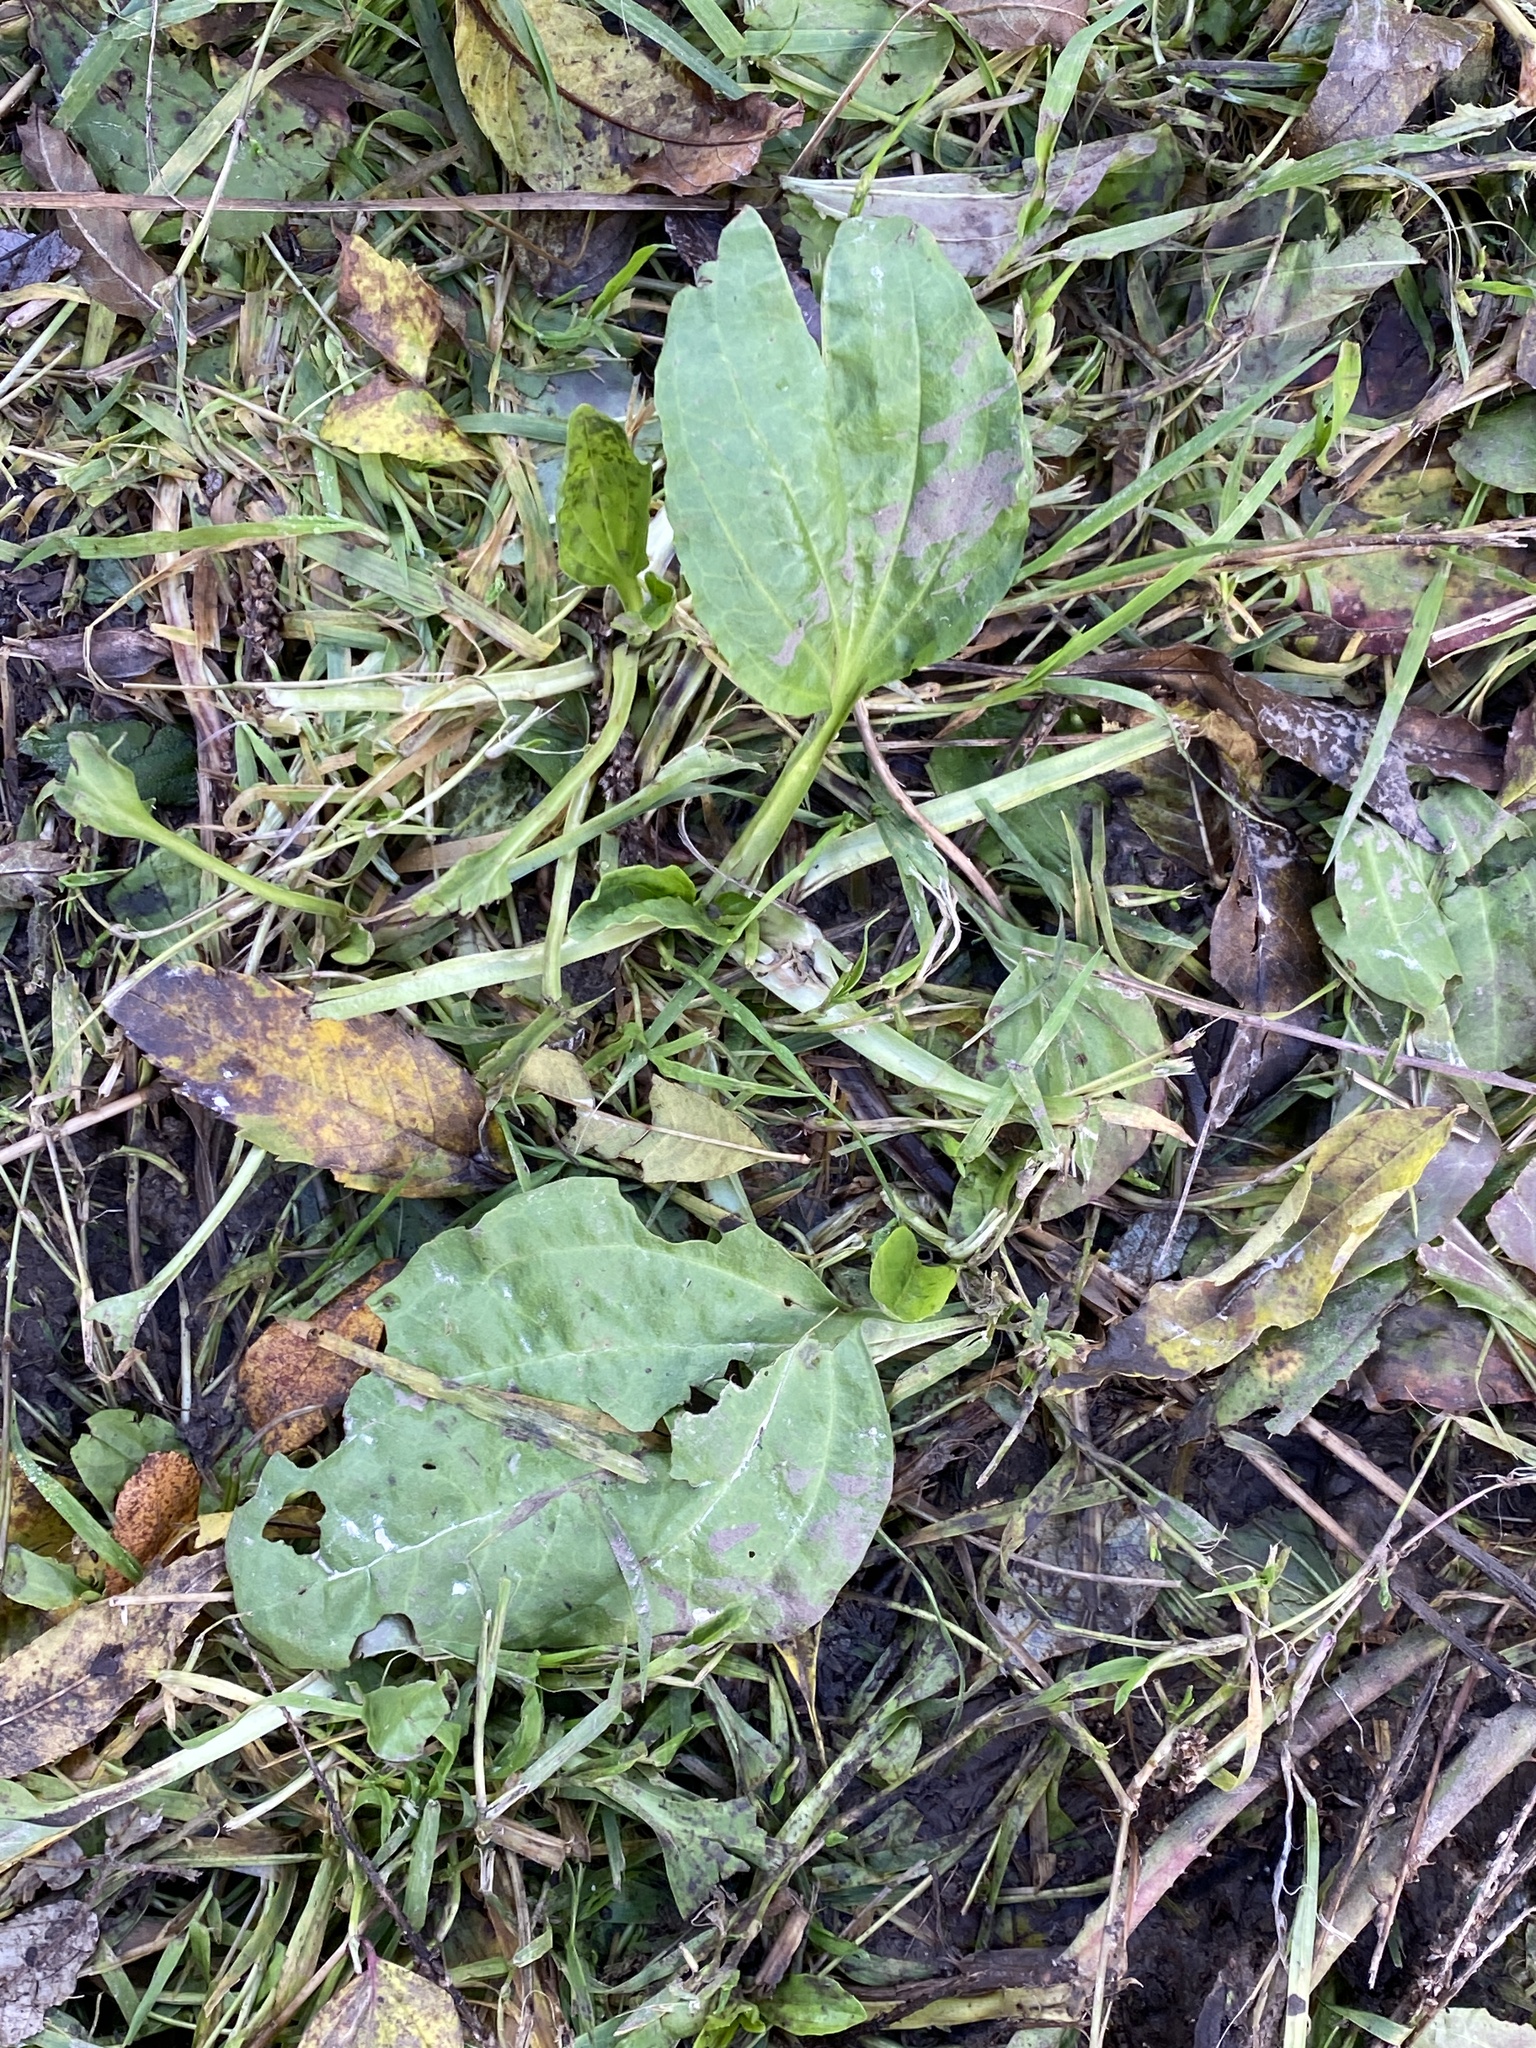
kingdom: Plantae
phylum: Tracheophyta
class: Magnoliopsida
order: Lamiales
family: Plantaginaceae
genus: Plantago
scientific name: Plantago major
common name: Common plantain
